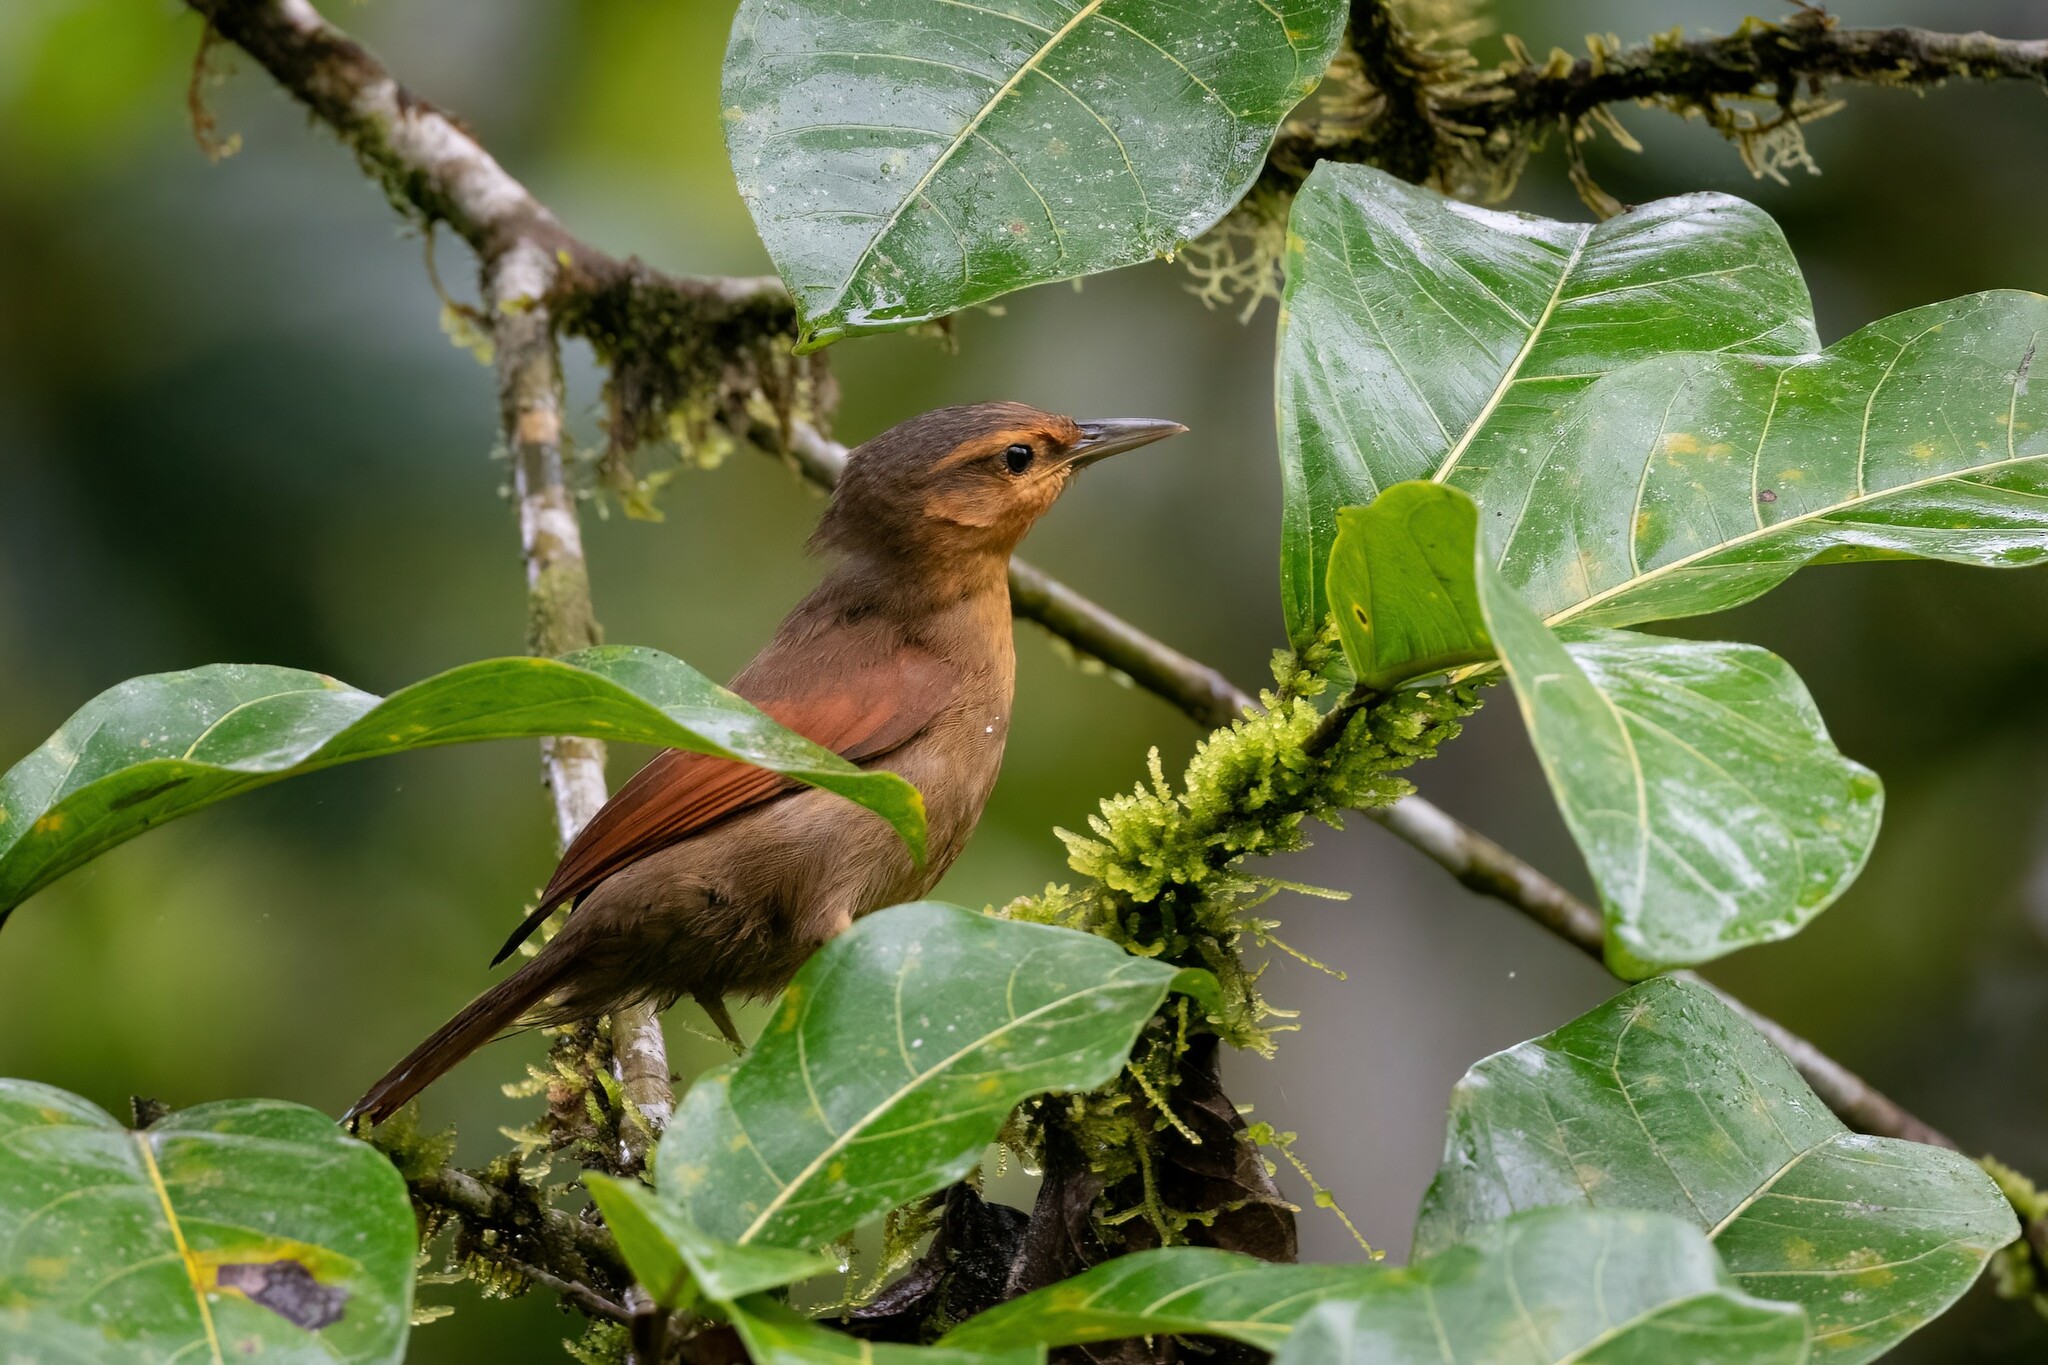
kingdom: Animalia
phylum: Chordata
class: Aves
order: Passeriformes
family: Furnariidae
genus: Philydor
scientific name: Philydor rufum
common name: Buff-fronted foliage-gleaner
